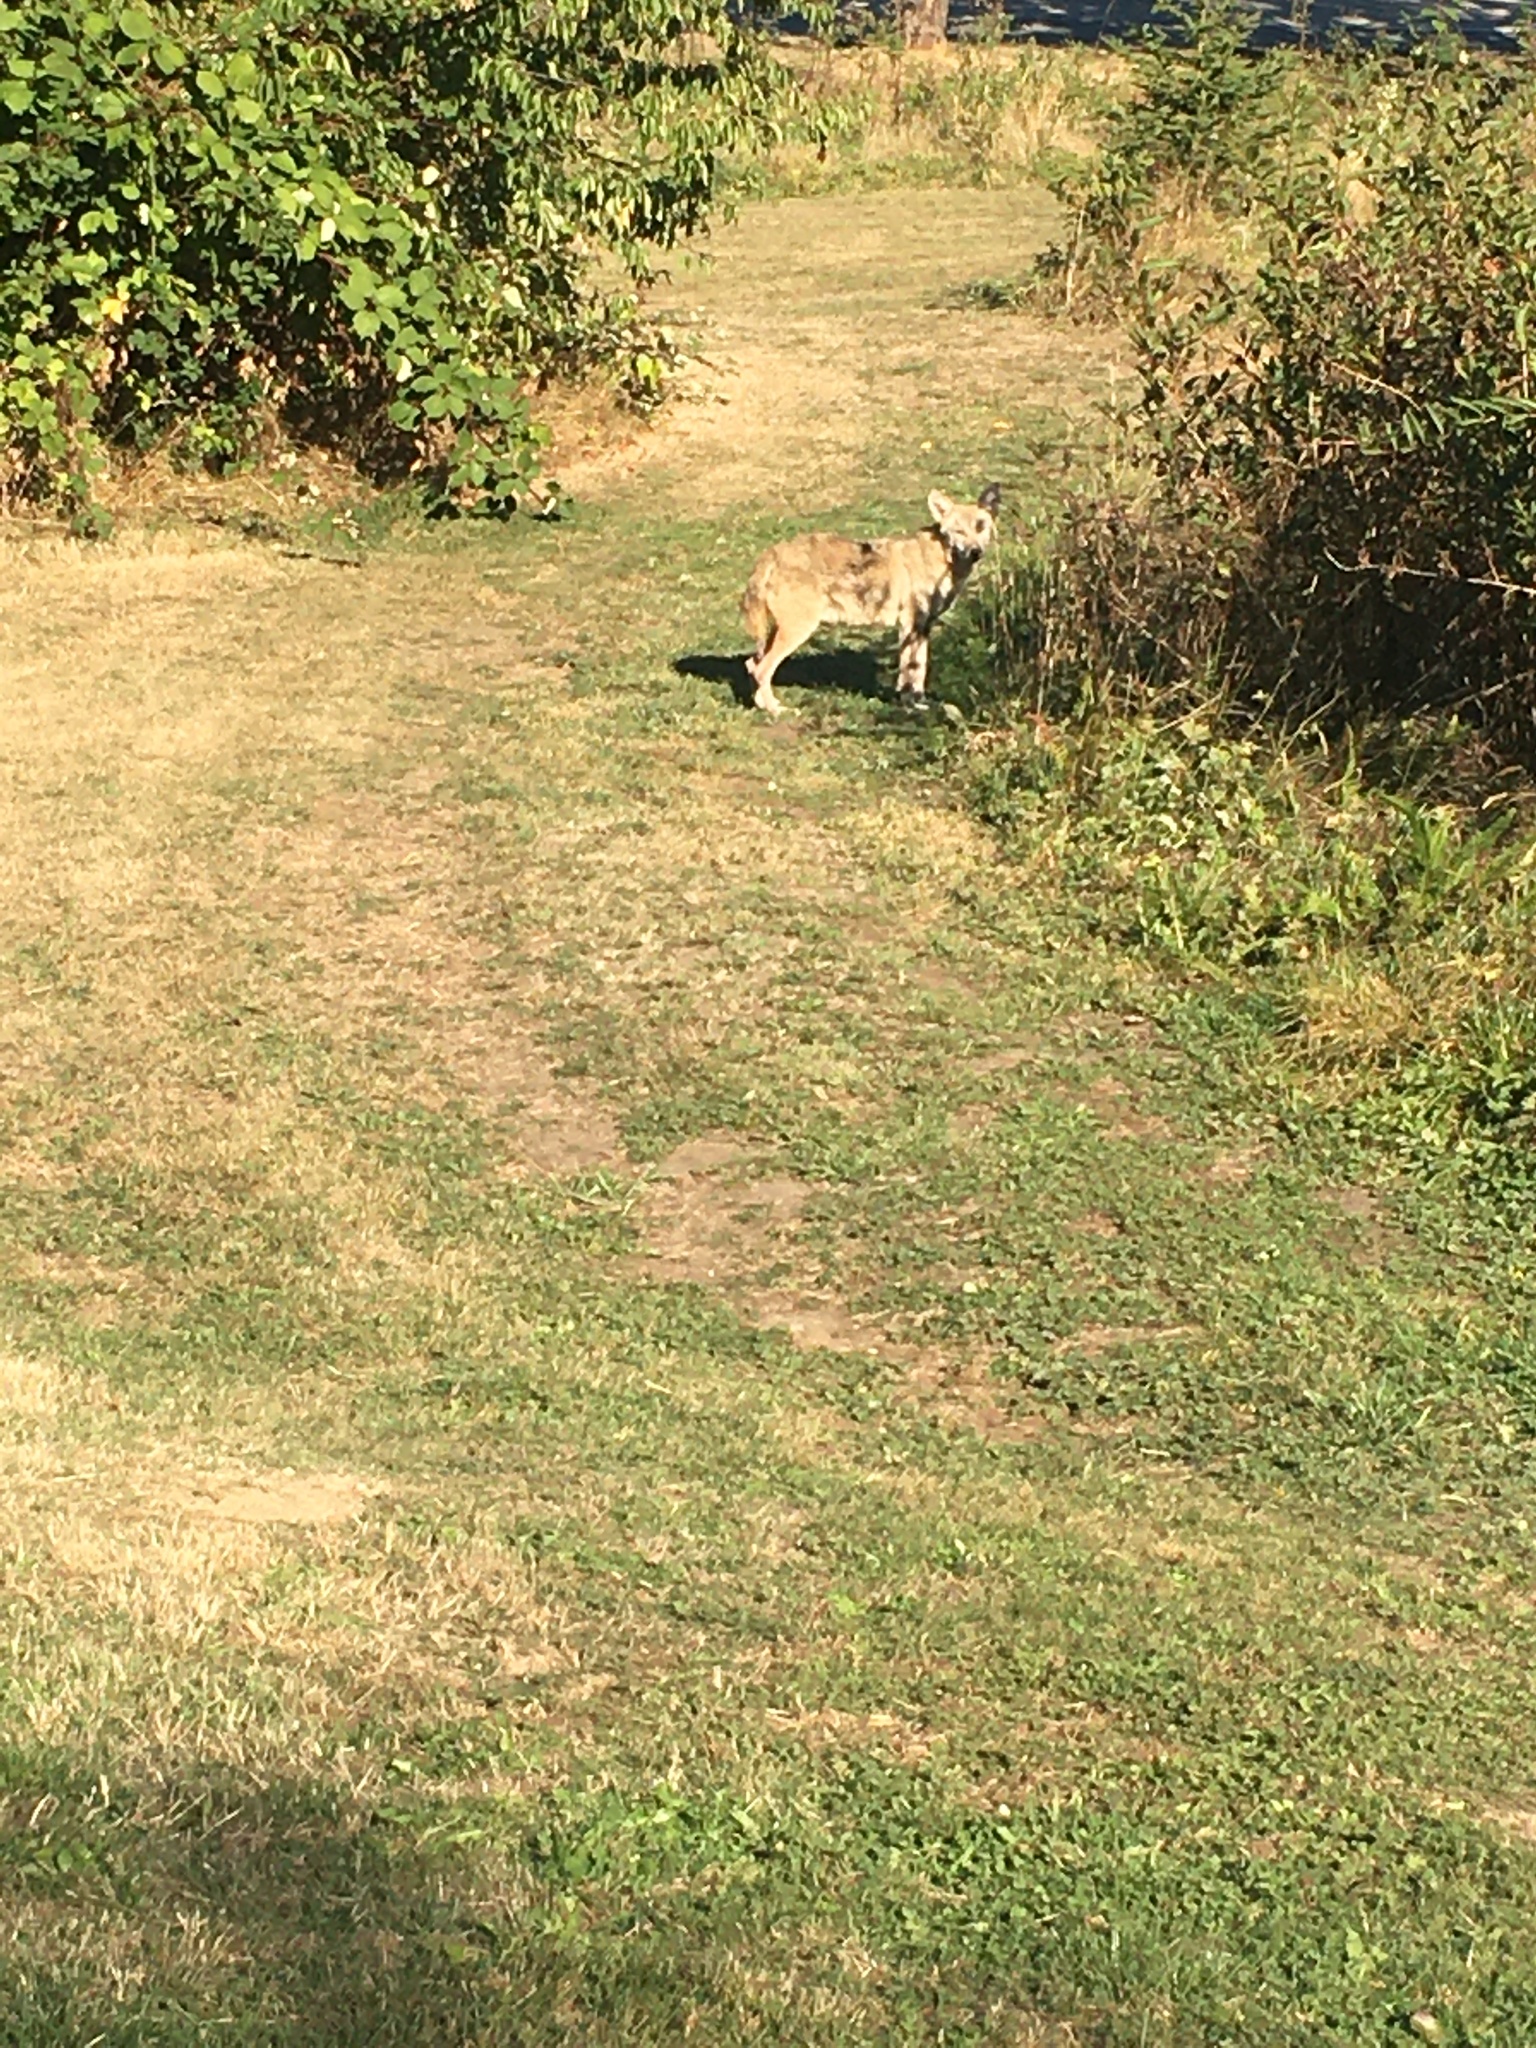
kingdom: Animalia
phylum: Chordata
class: Mammalia
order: Carnivora
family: Canidae
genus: Canis
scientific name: Canis latrans
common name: Coyote
